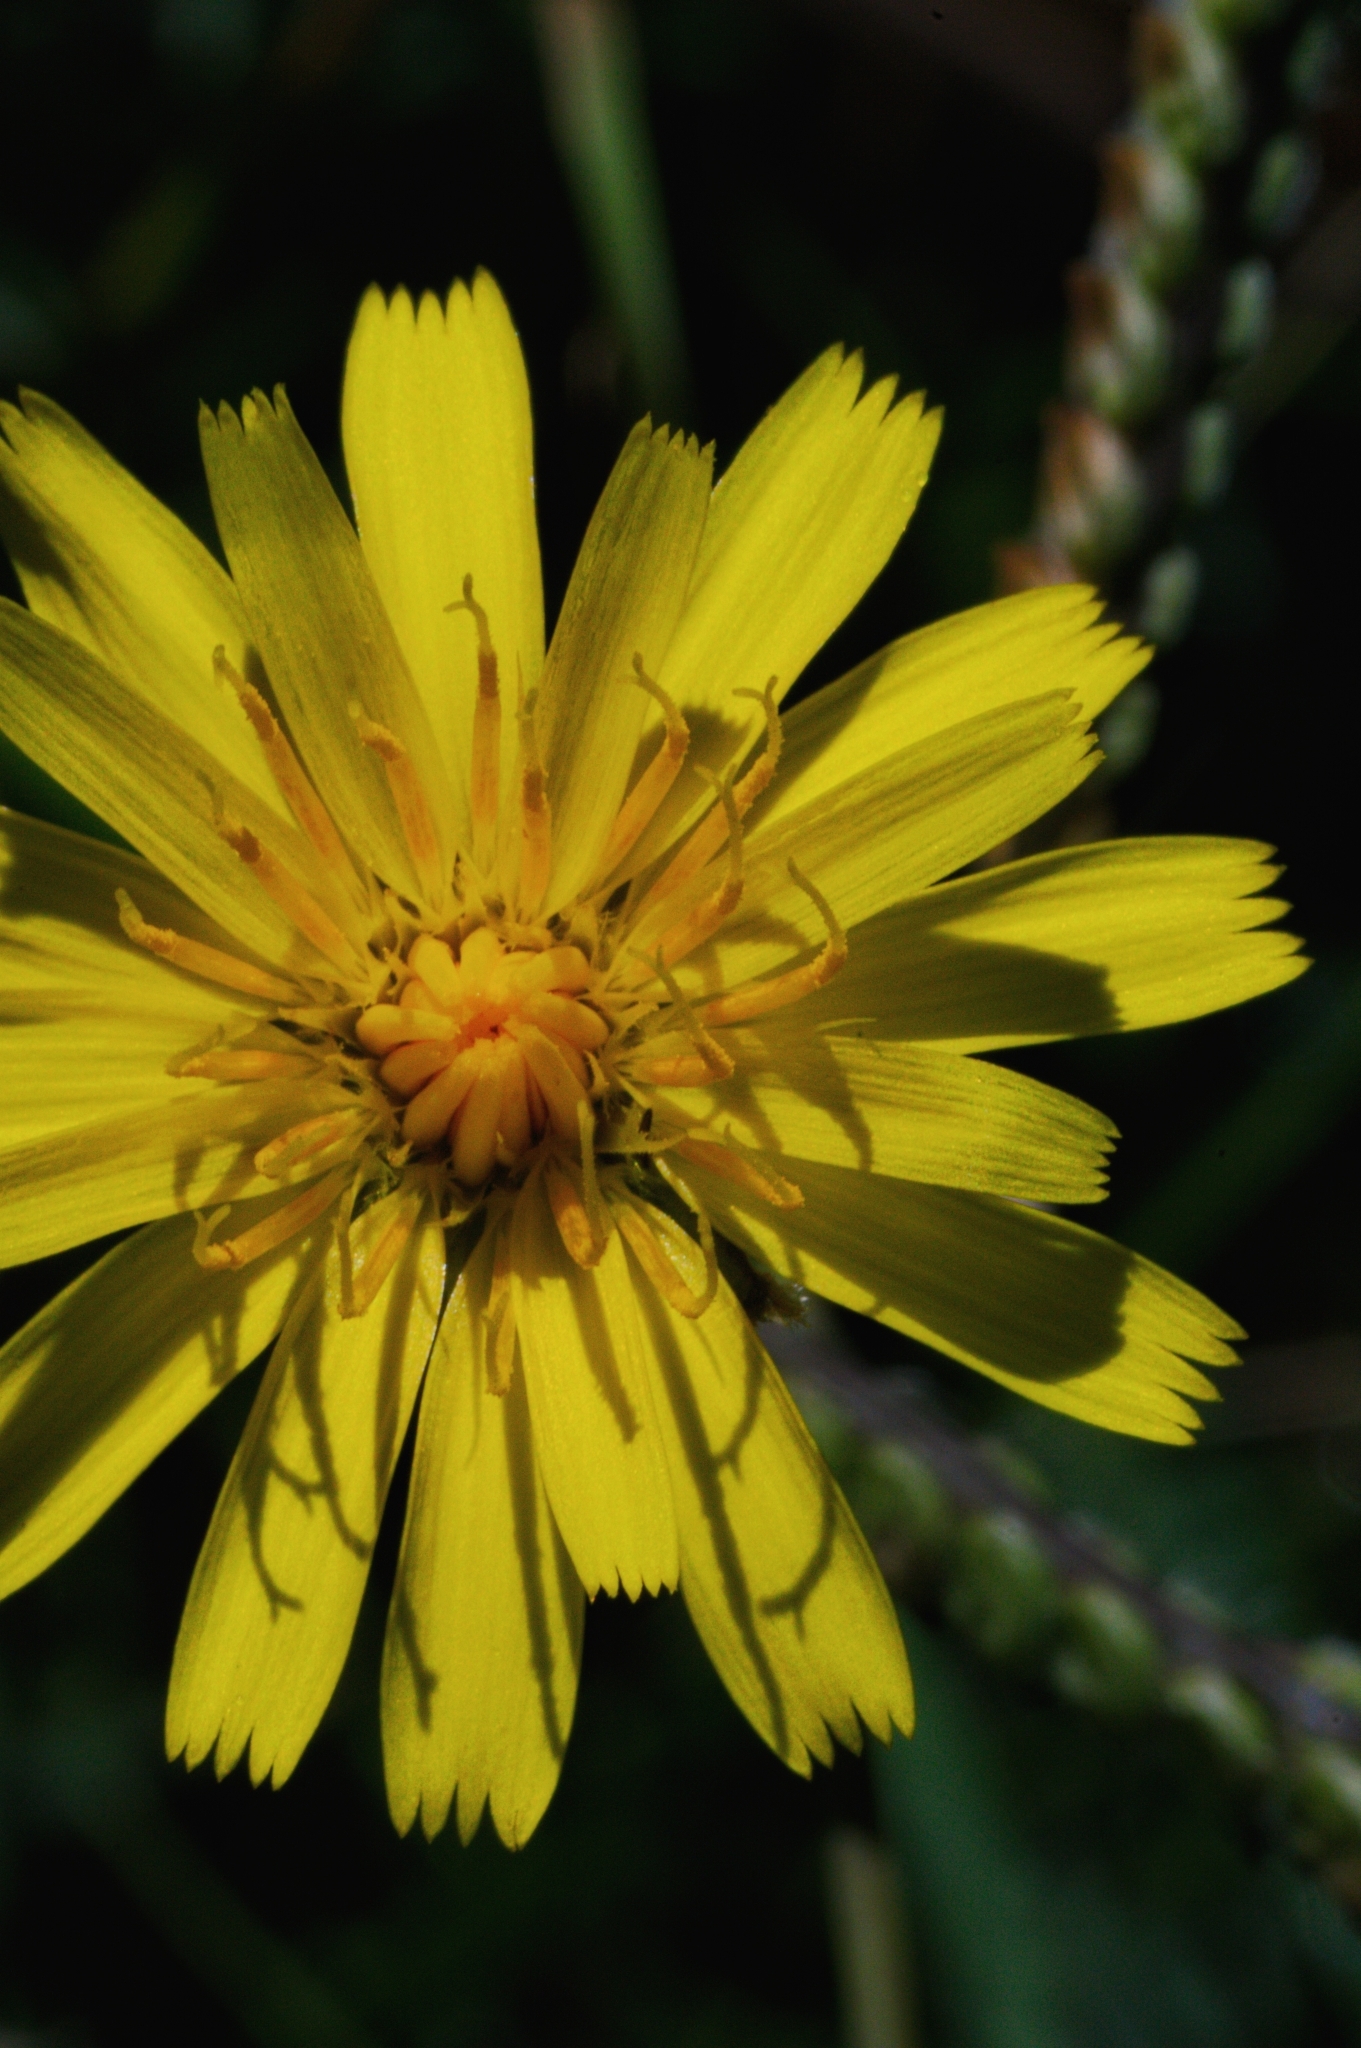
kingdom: Plantae
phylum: Tracheophyta
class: Magnoliopsida
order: Asterales
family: Asteraceae
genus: Hypochaeris
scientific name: Hypochaeris radicata
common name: Flatweed
